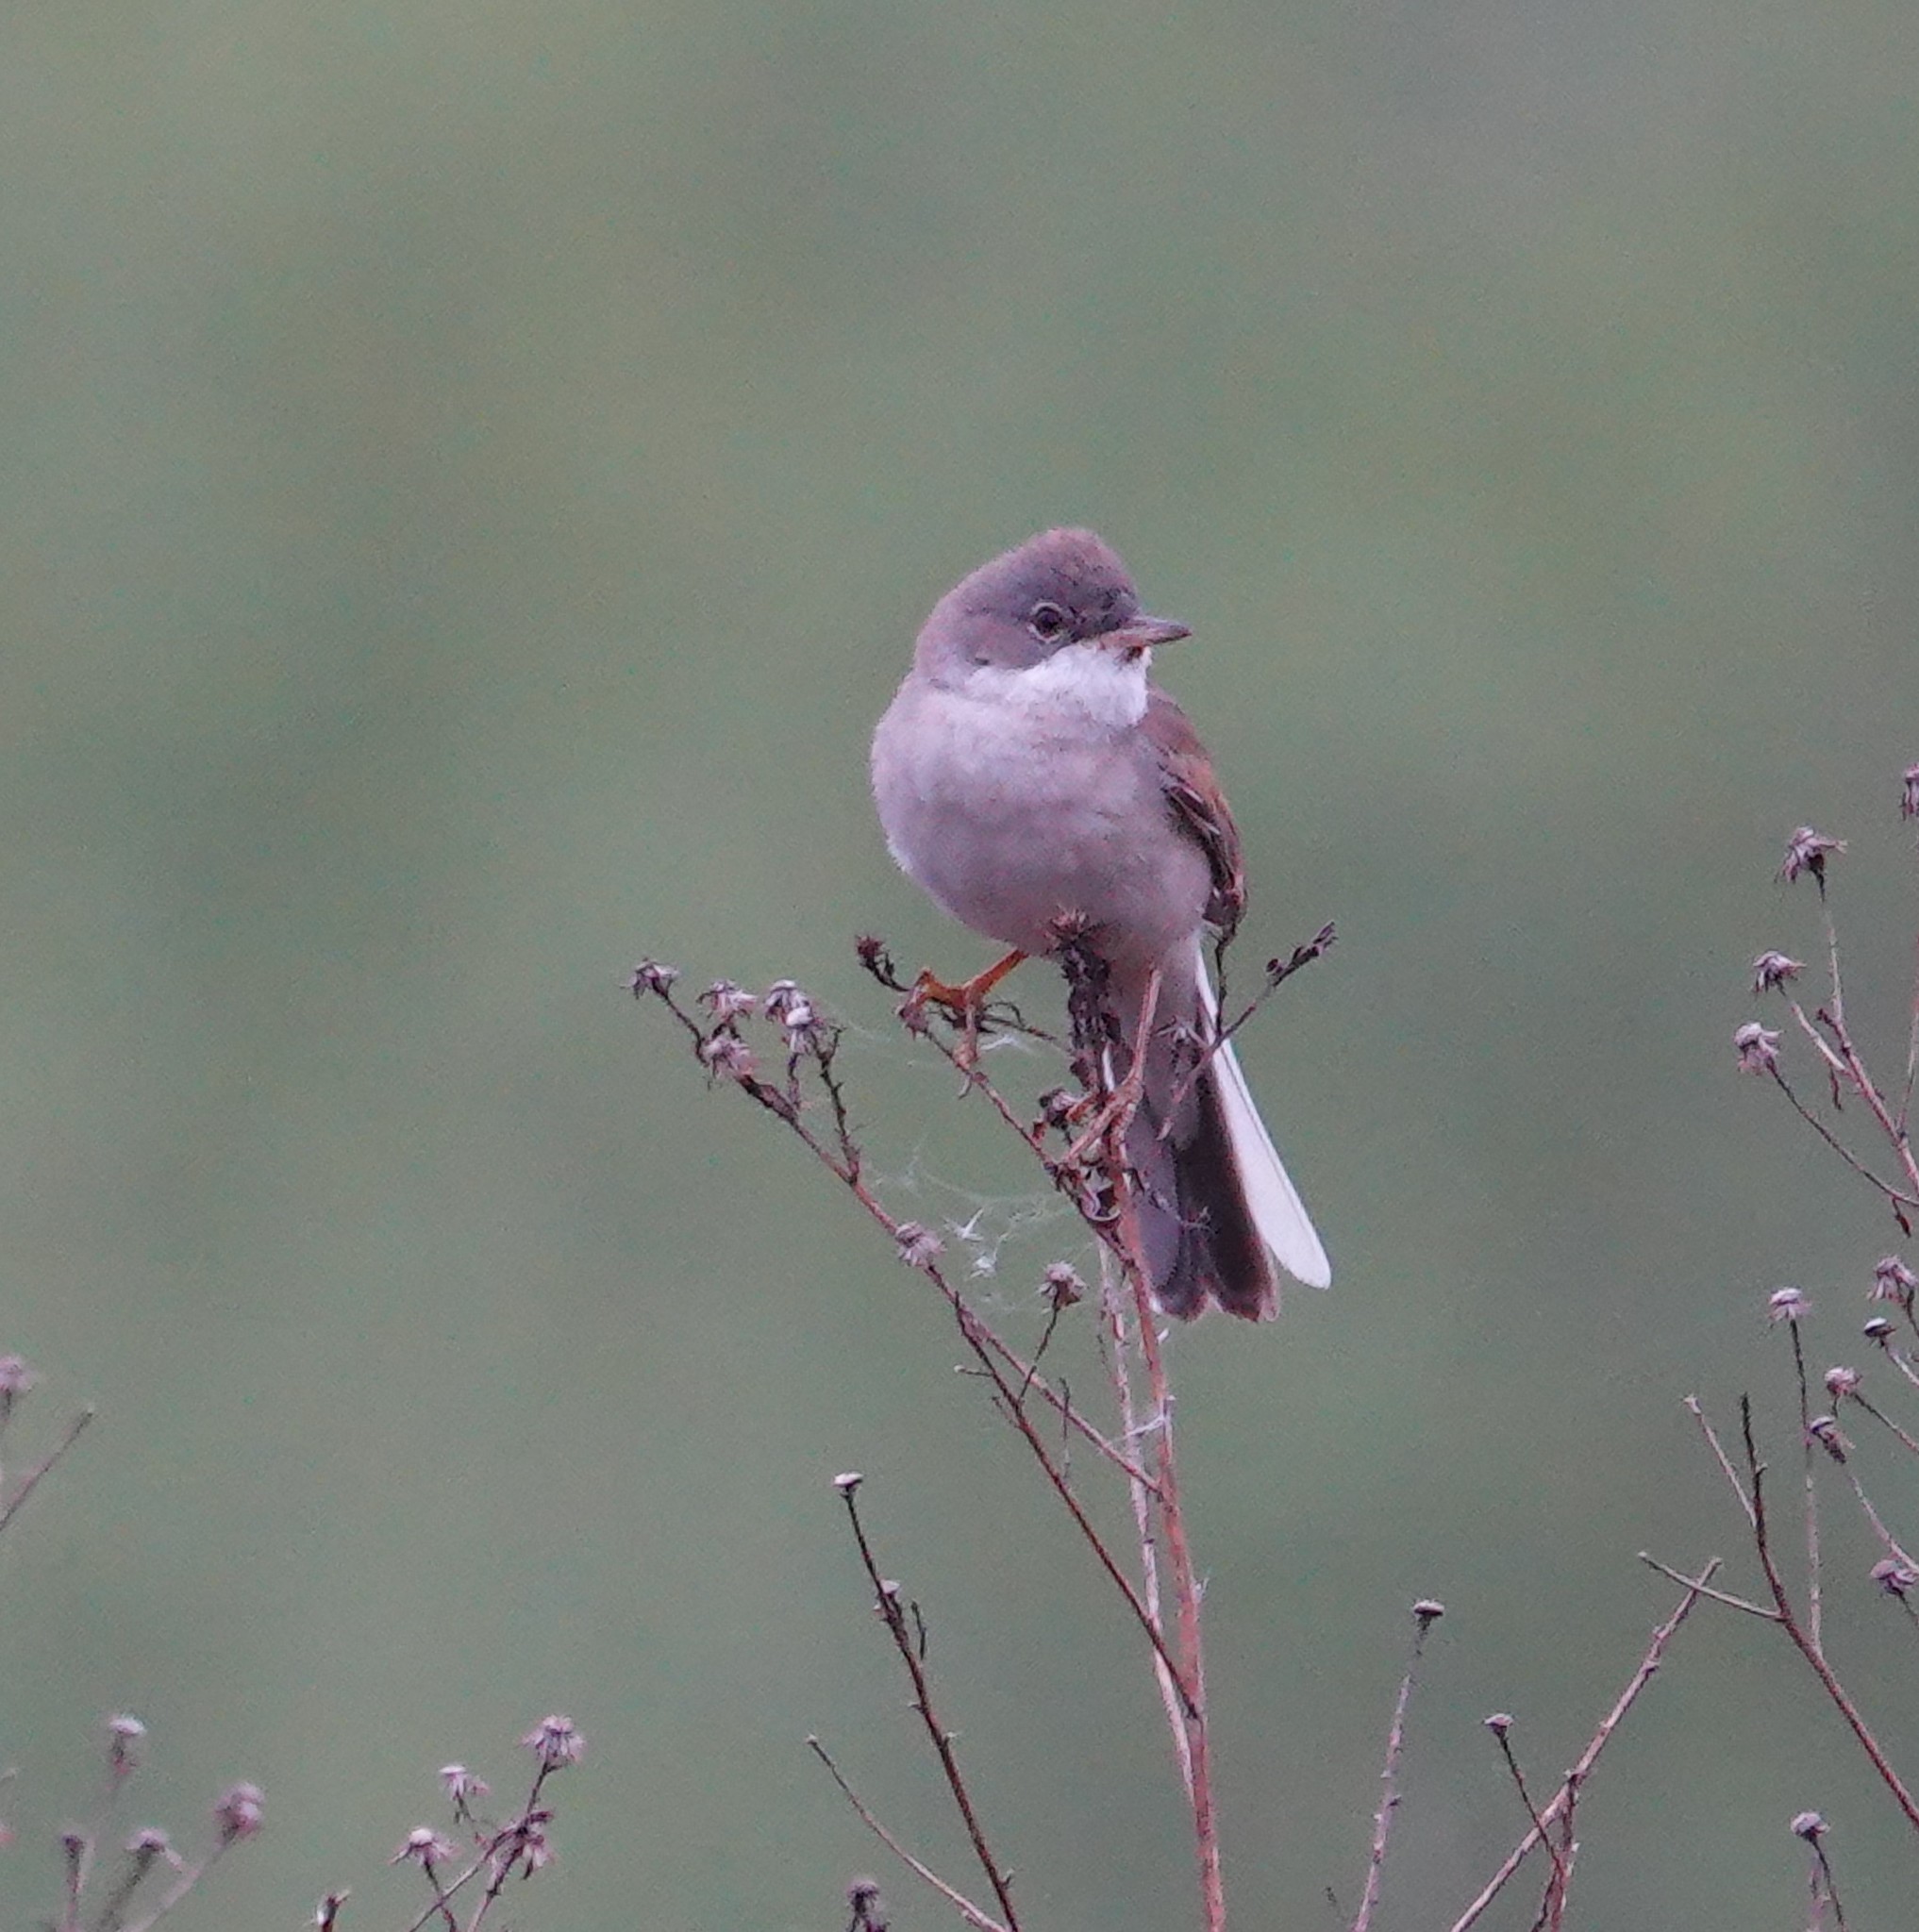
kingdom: Animalia
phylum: Chordata
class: Aves
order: Passeriformes
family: Sylviidae
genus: Sylvia
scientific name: Sylvia communis
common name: Common whitethroat
